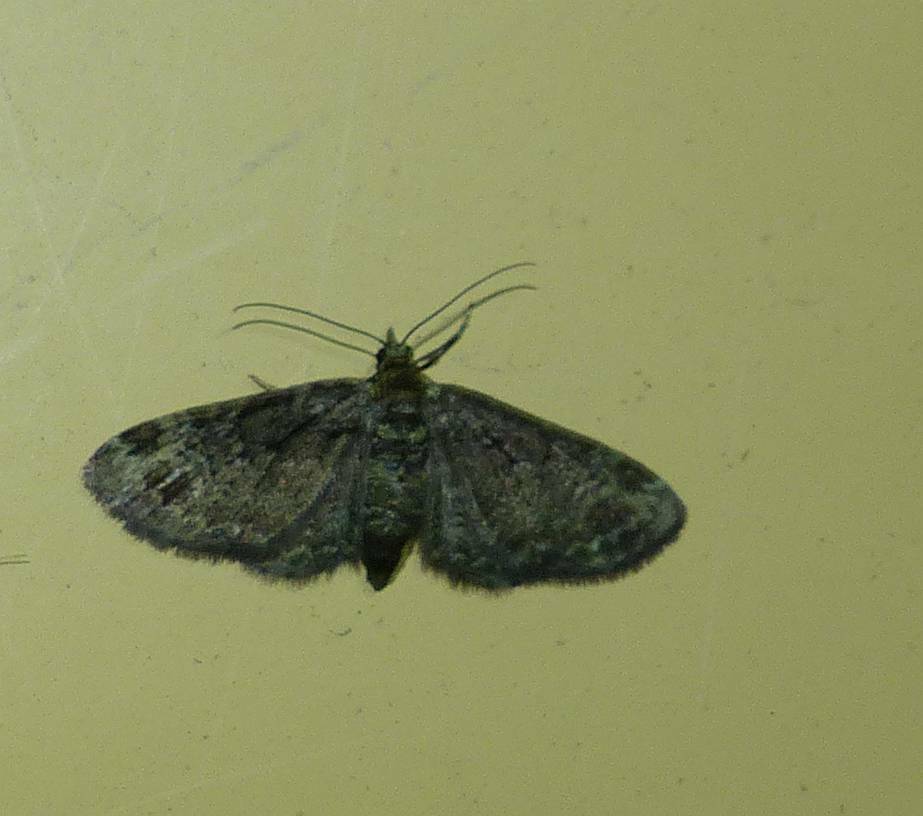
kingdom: Animalia
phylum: Arthropoda
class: Insecta
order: Lepidoptera
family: Geometridae
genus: Pasiphila
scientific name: Pasiphila rectangulata
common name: Green pug
